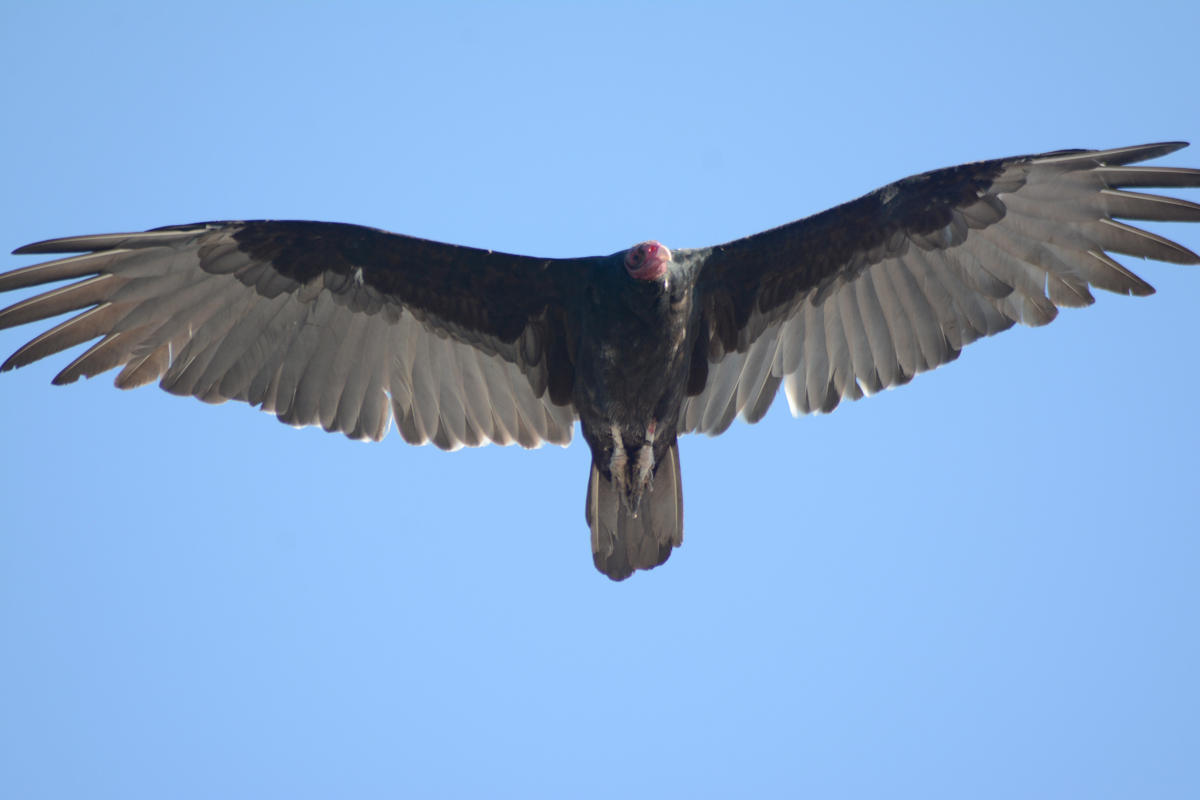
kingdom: Animalia
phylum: Chordata
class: Aves
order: Accipitriformes
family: Cathartidae
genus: Cathartes
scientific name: Cathartes aura
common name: Turkey vulture
